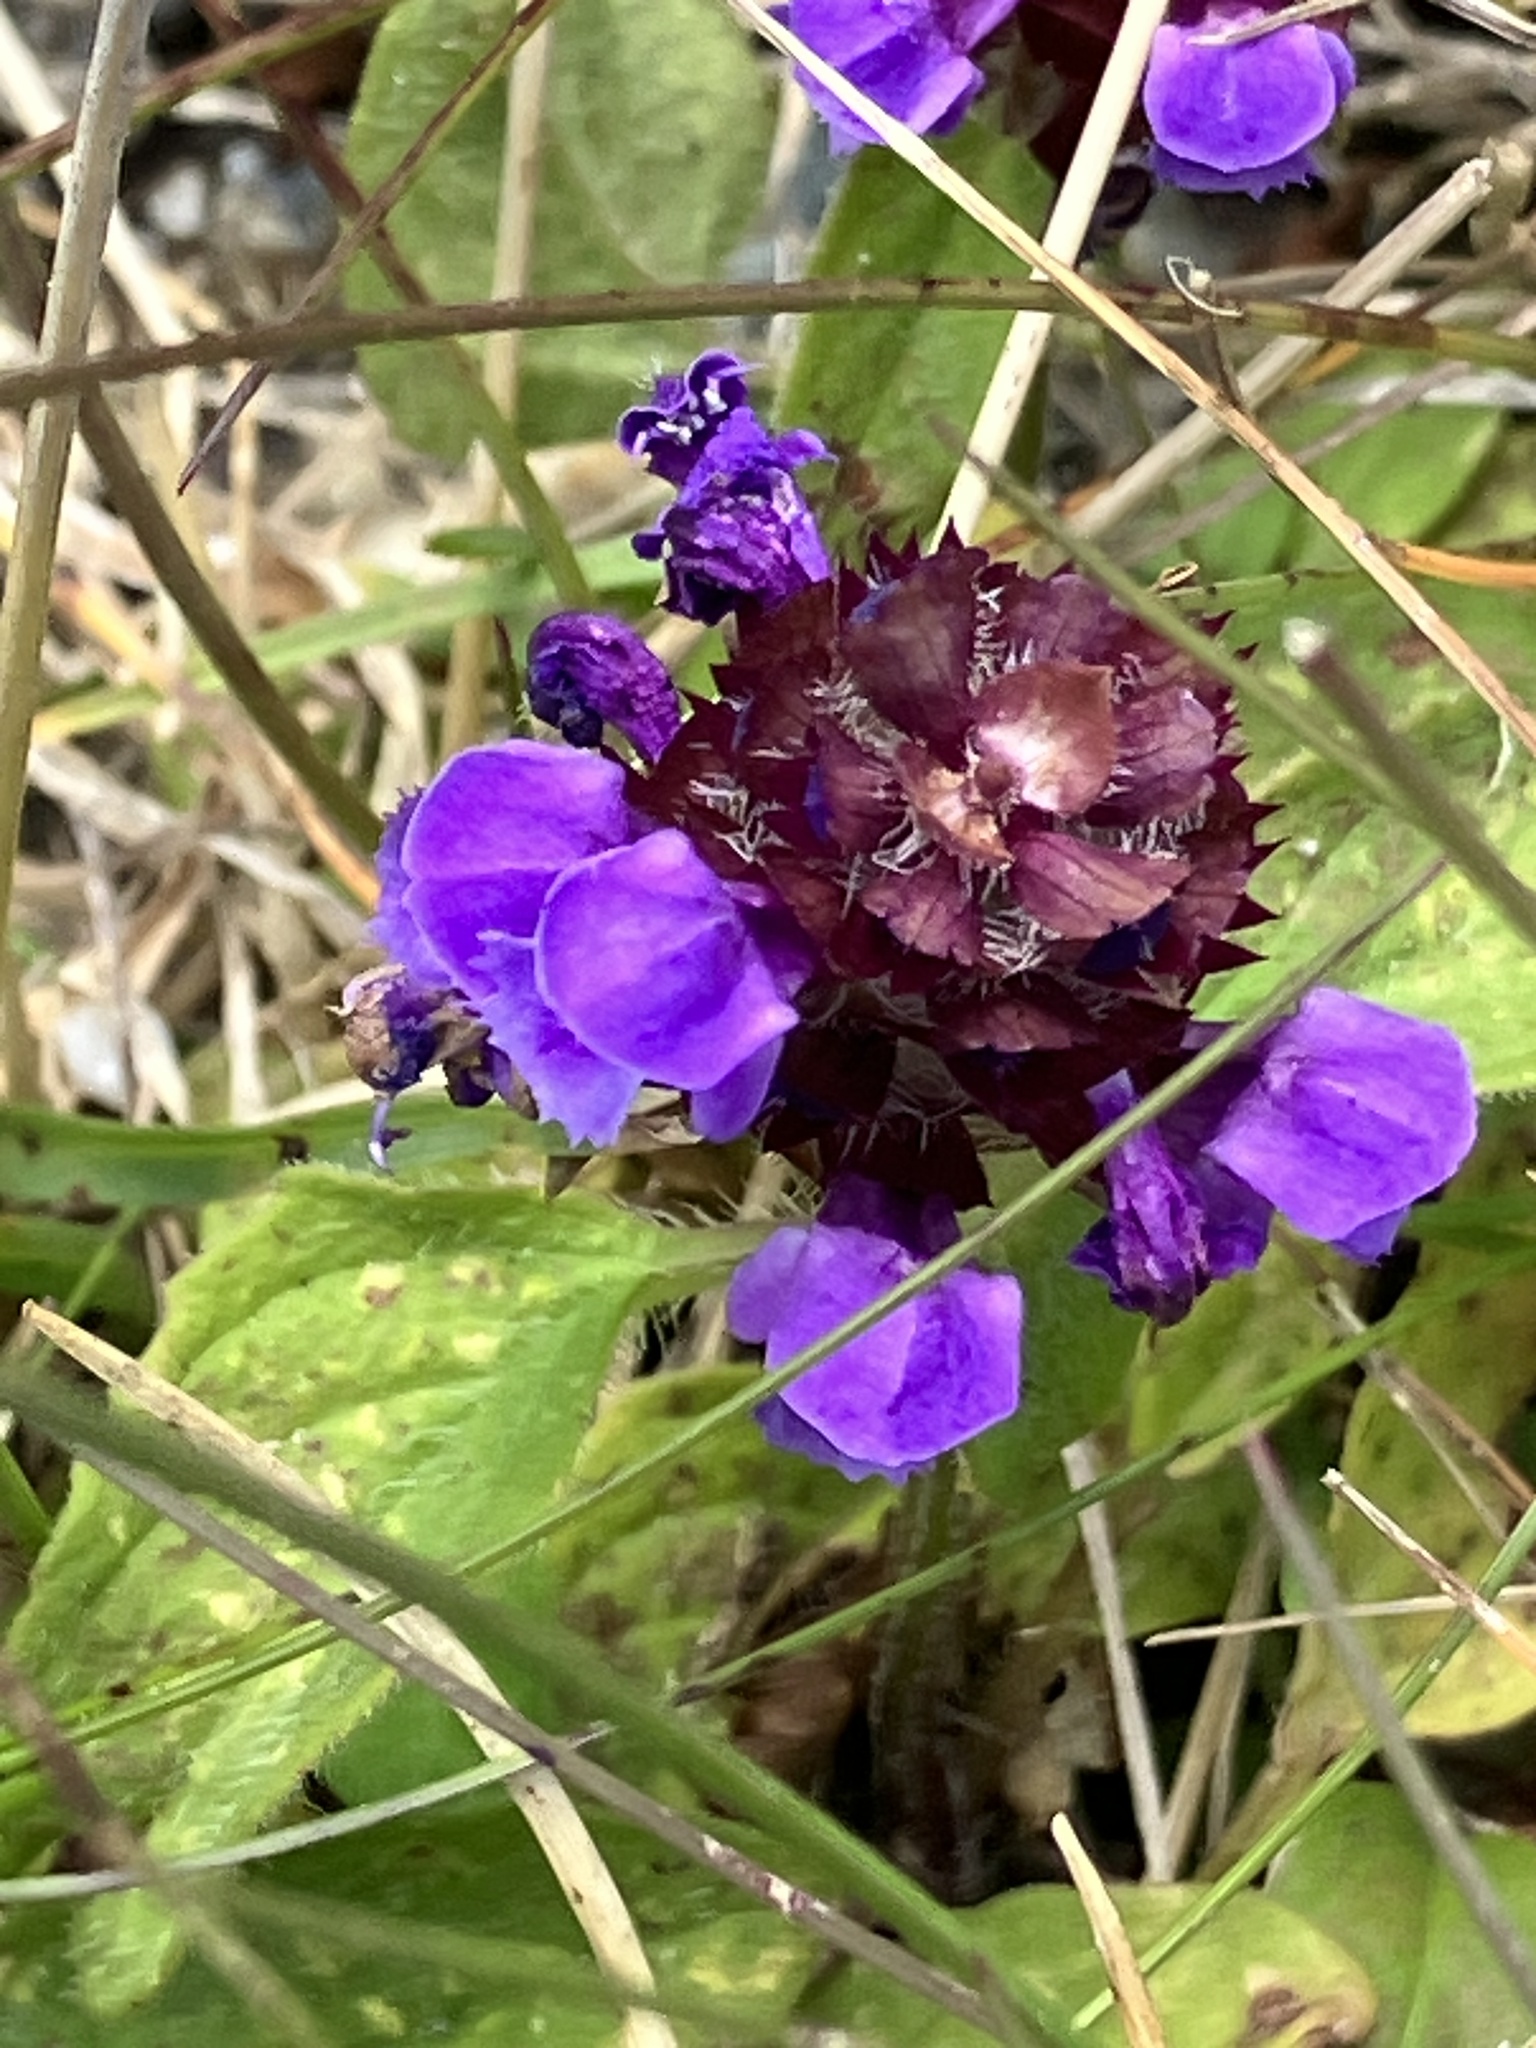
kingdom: Plantae
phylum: Tracheophyta
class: Magnoliopsida
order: Lamiales
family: Lamiaceae
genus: Prunella
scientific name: Prunella vulgaris
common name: Heal-all
